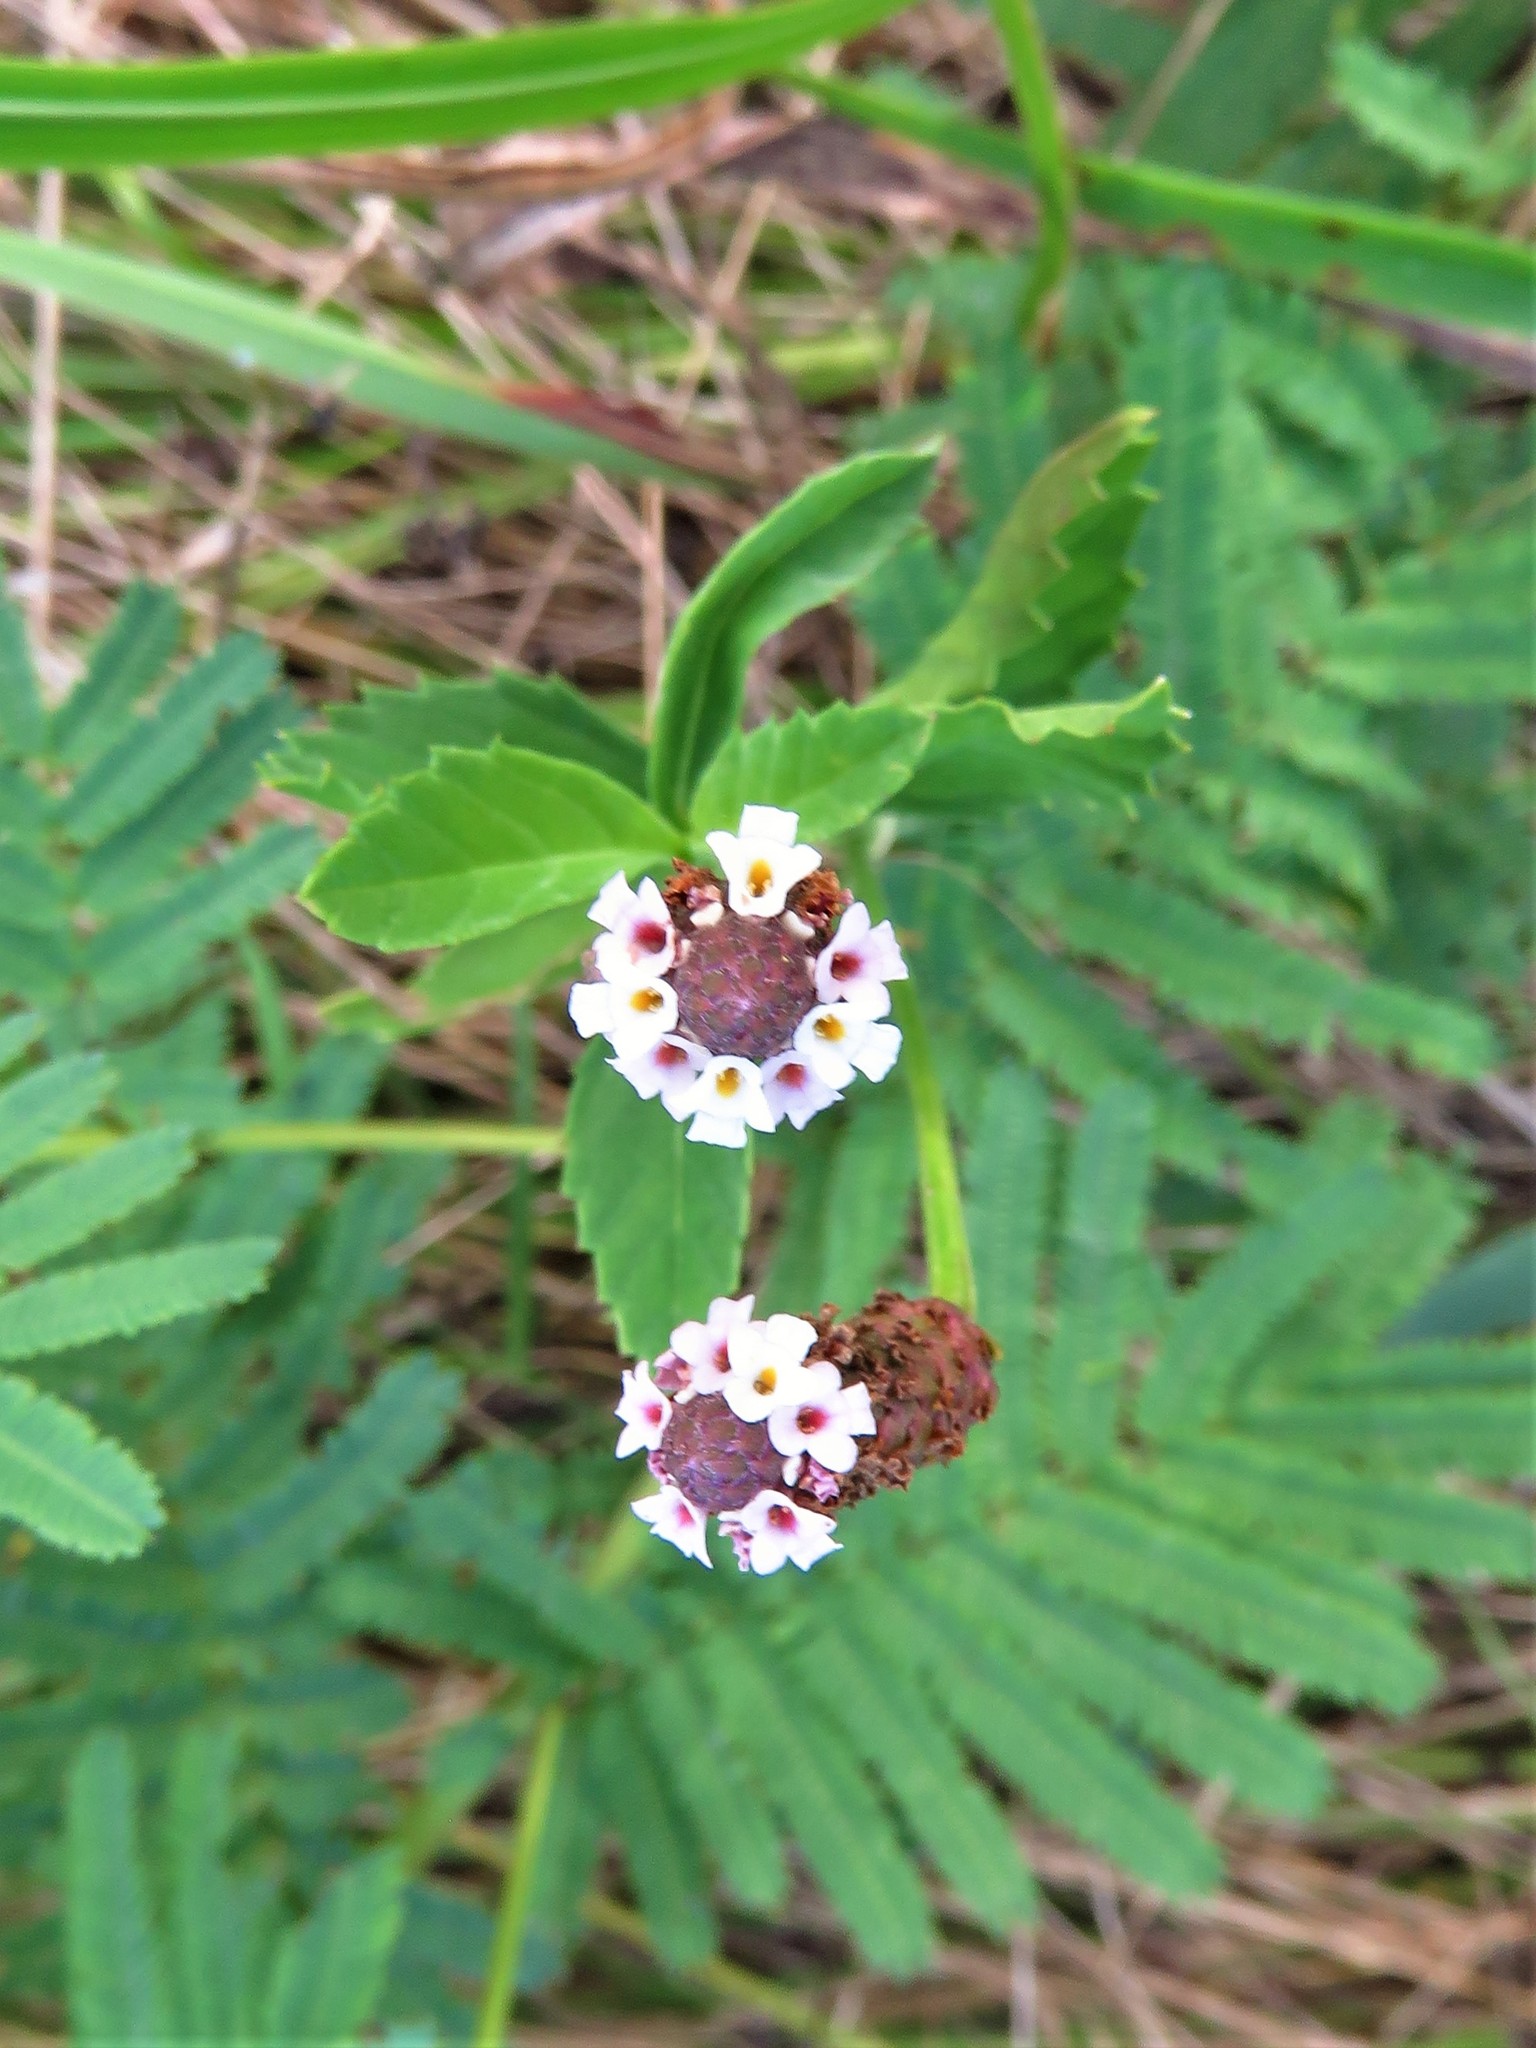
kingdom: Plantae
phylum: Tracheophyta
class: Magnoliopsida
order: Lamiales
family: Verbenaceae
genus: Phyla
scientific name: Phyla nodiflora
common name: Frogfruit
